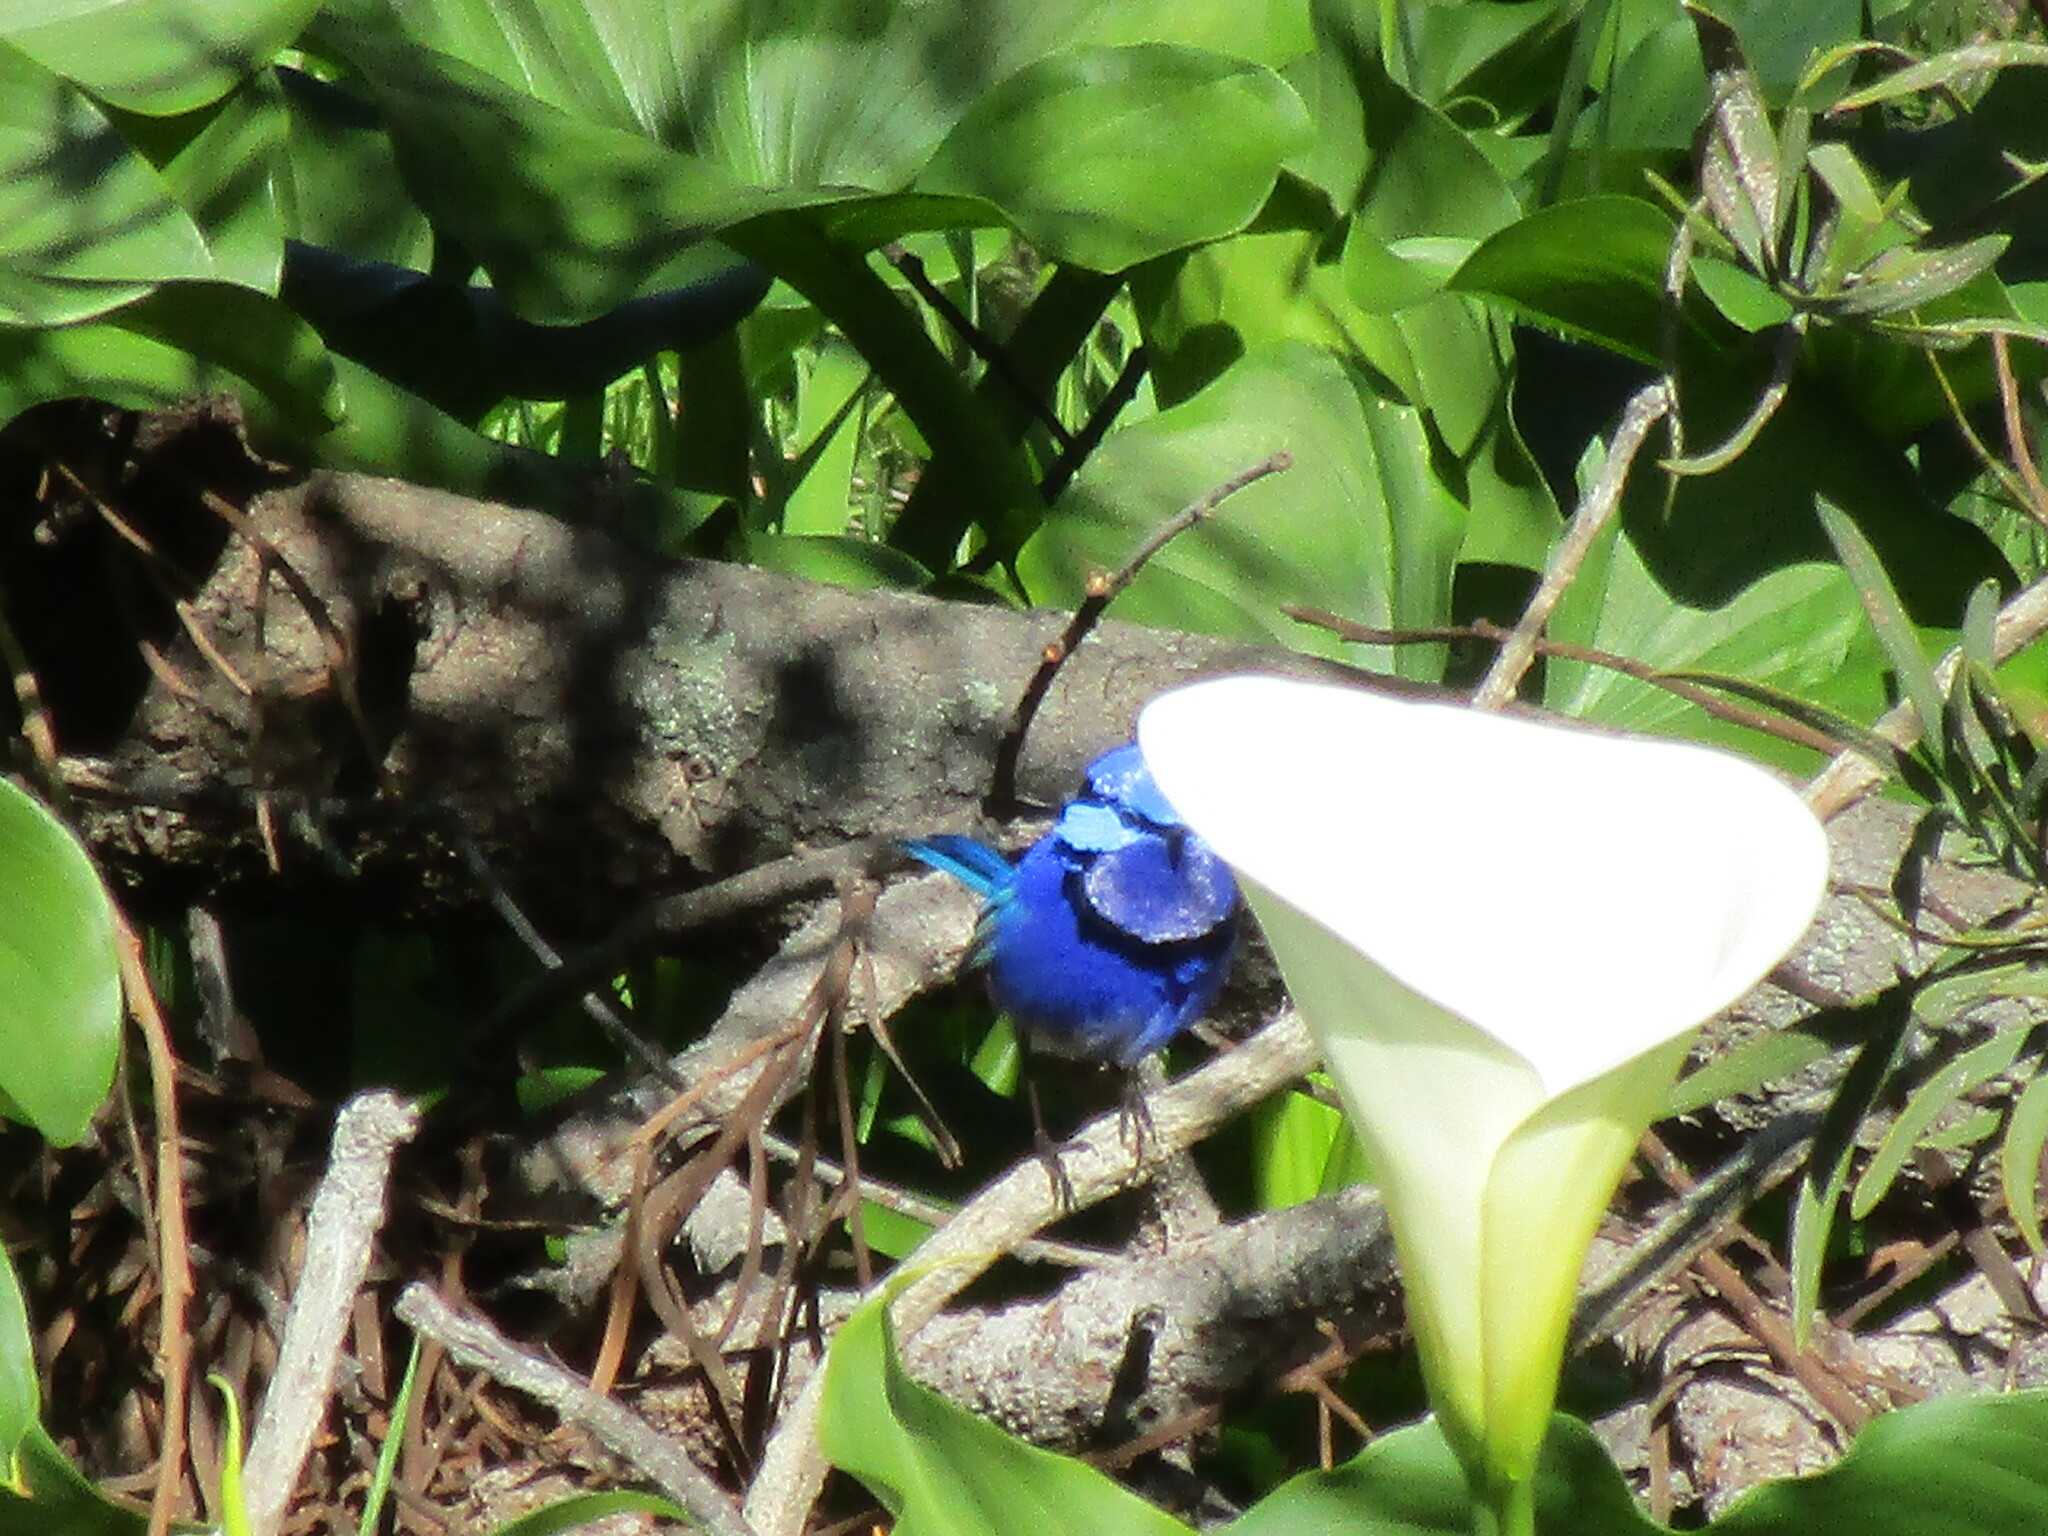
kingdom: Animalia
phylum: Chordata
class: Aves
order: Passeriformes
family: Maluridae
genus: Malurus
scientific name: Malurus splendens
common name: Splendid fairywren
